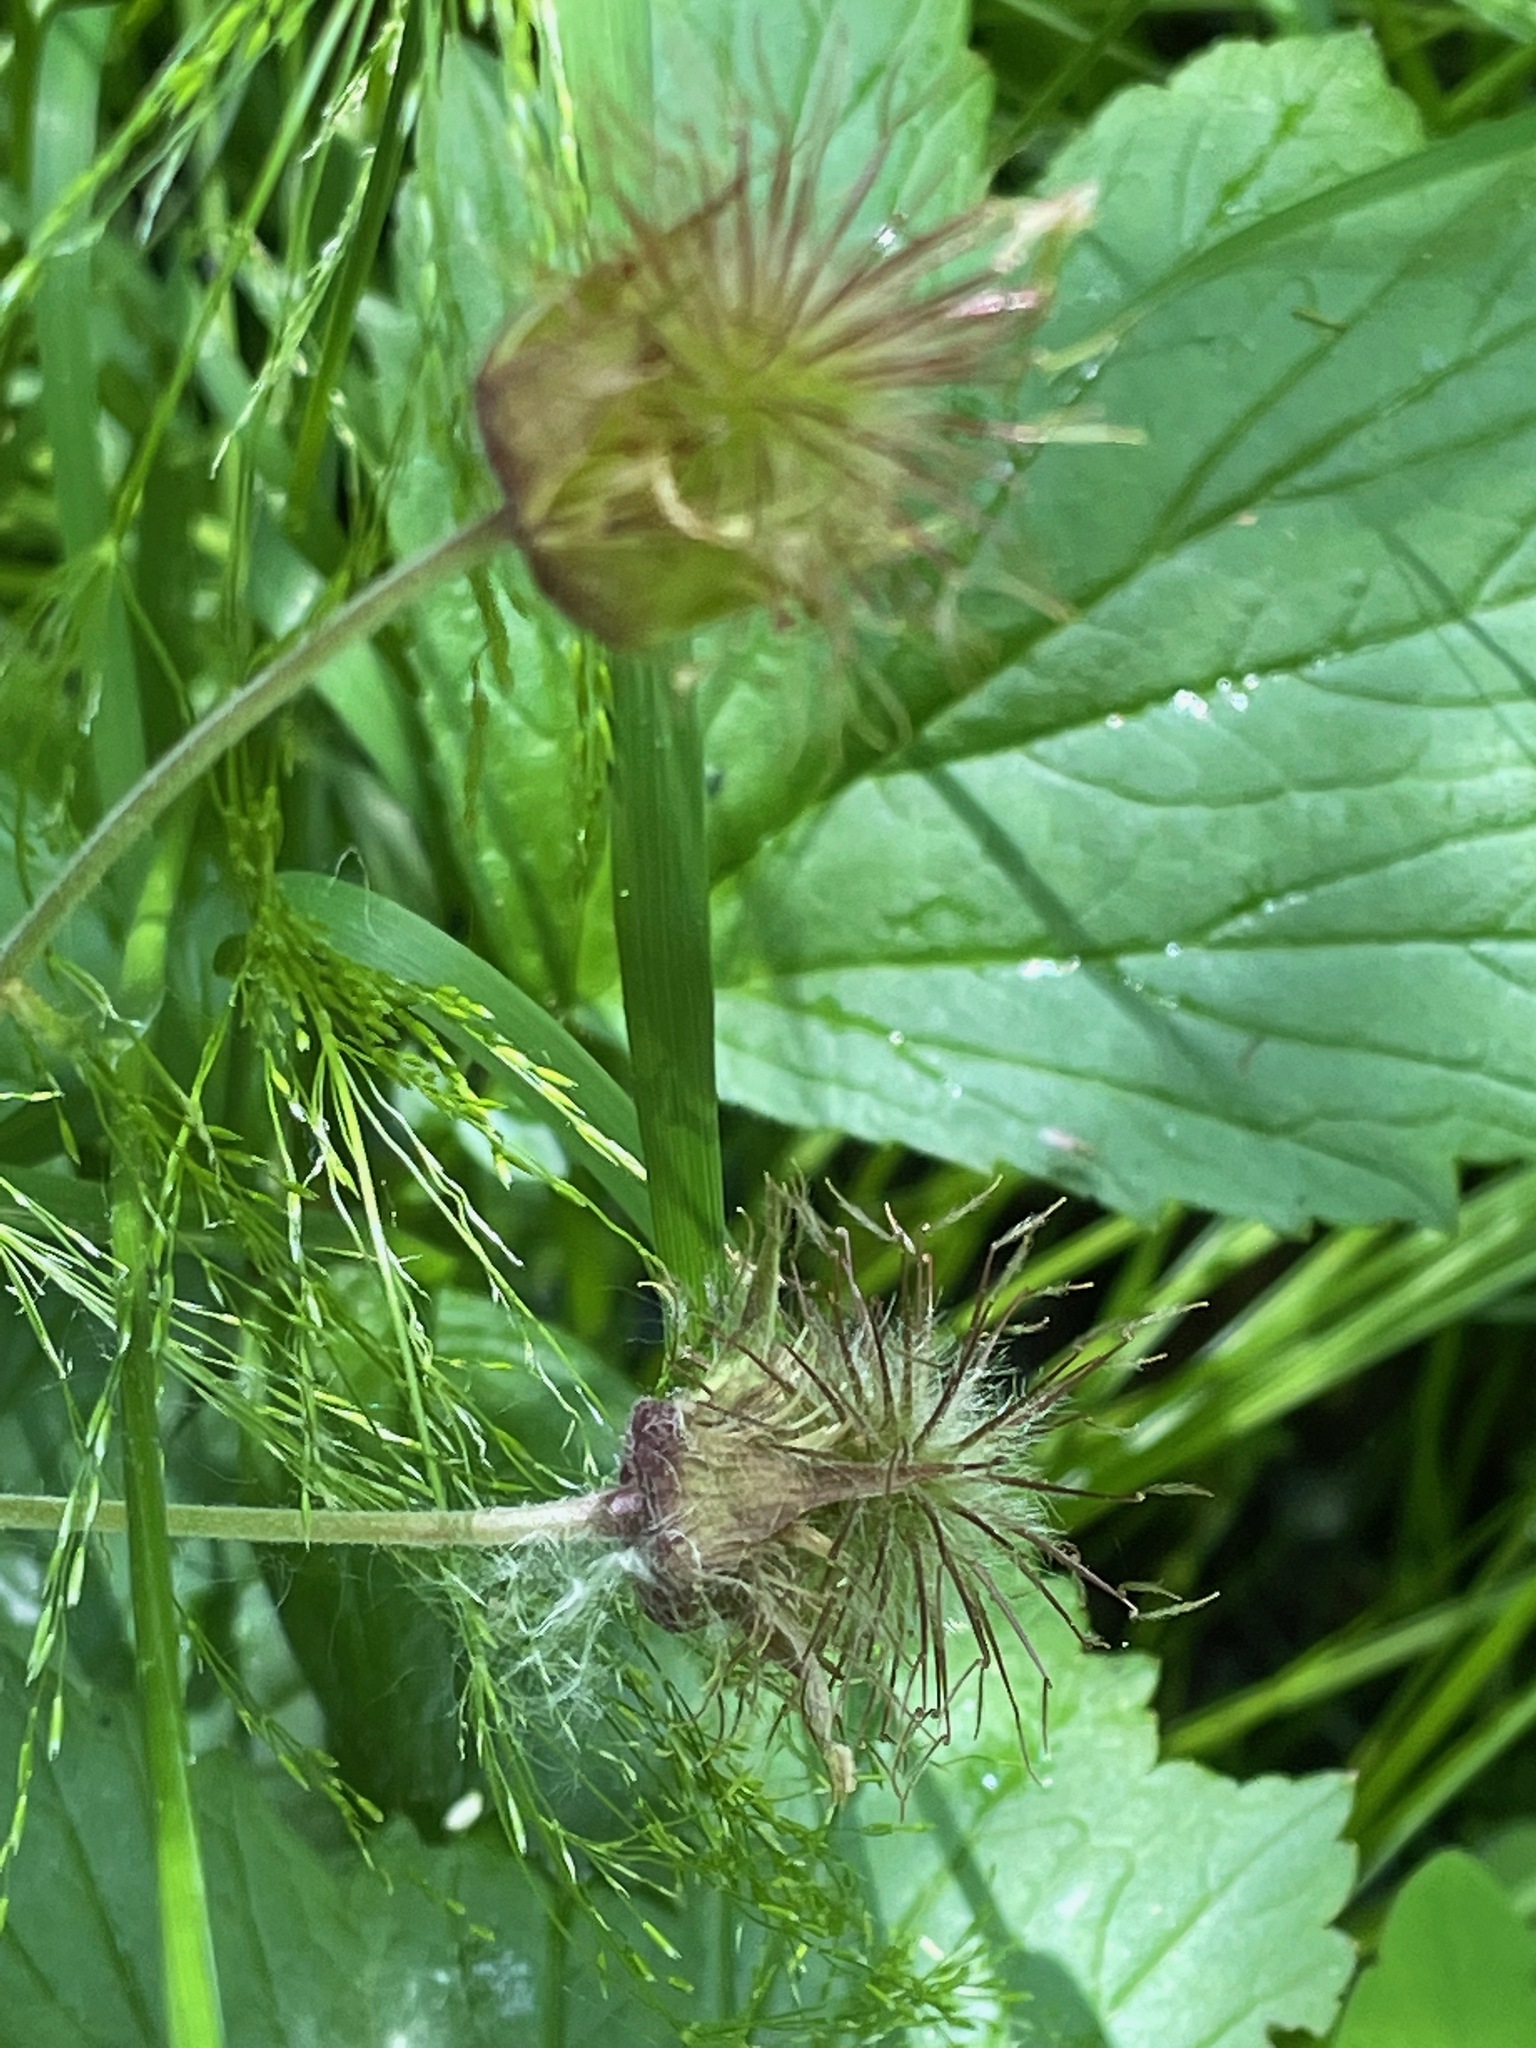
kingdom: Plantae
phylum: Tracheophyta
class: Magnoliopsida
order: Rosales
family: Rosaceae
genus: Geum
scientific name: Geum rivale
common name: Water avens
